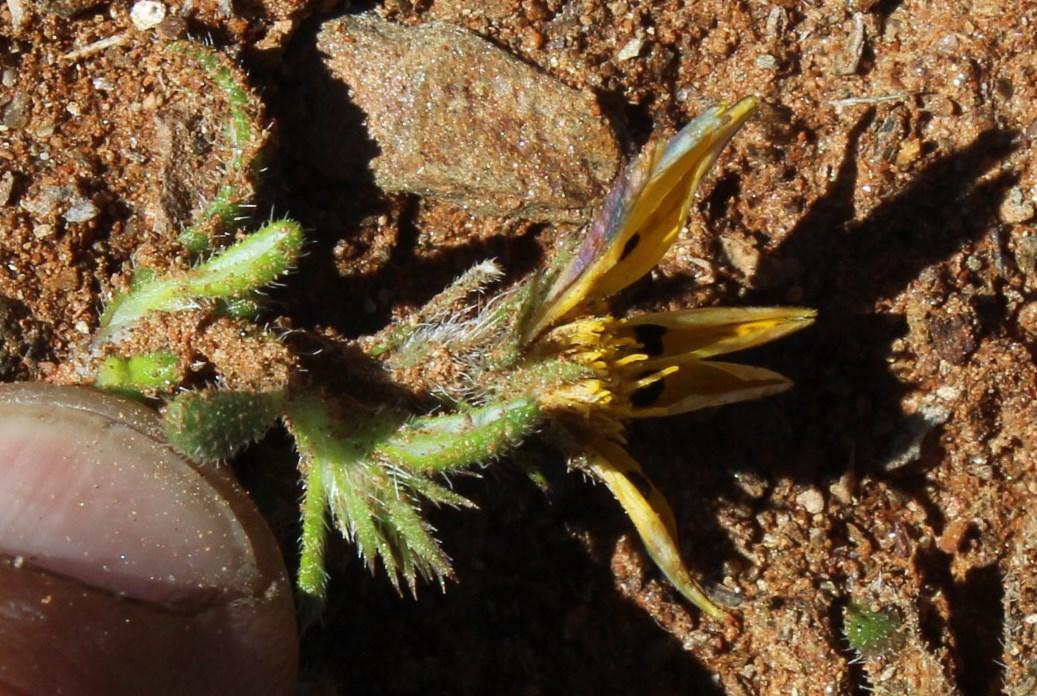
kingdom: Plantae
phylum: Tracheophyta
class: Magnoliopsida
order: Asterales
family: Asteraceae
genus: Gorteria
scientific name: Gorteria corymbosa
